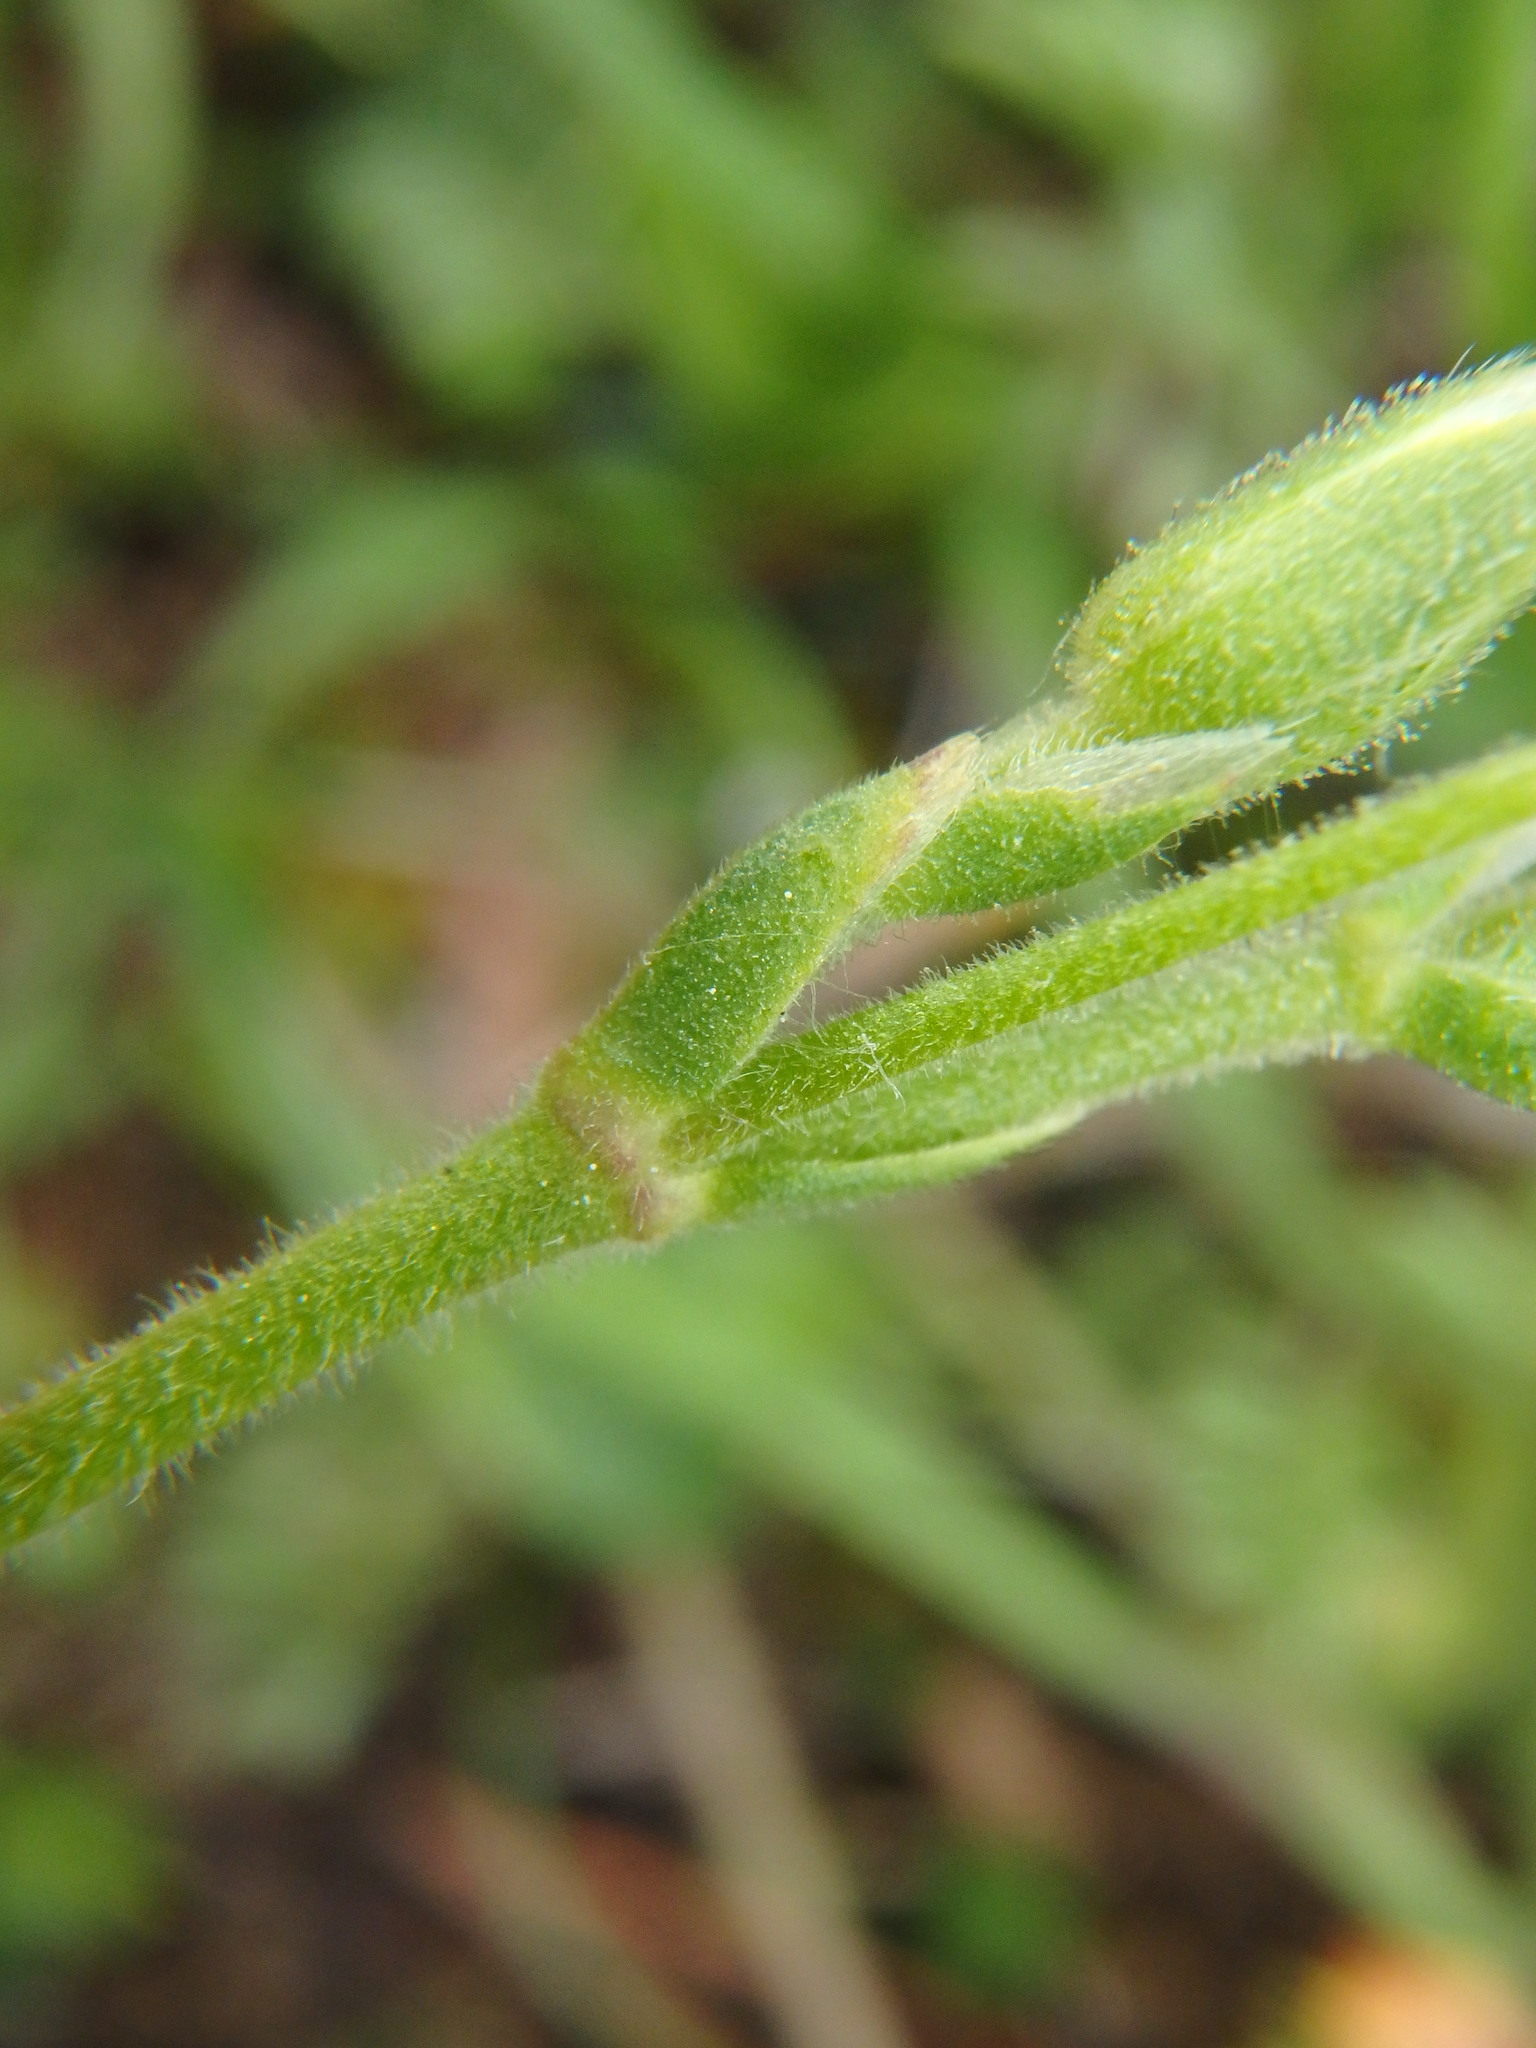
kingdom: Plantae
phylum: Tracheophyta
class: Magnoliopsida
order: Caryophyllales
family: Caryophyllaceae
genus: Cerastium
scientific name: Cerastium arvense
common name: Field mouse-ear
